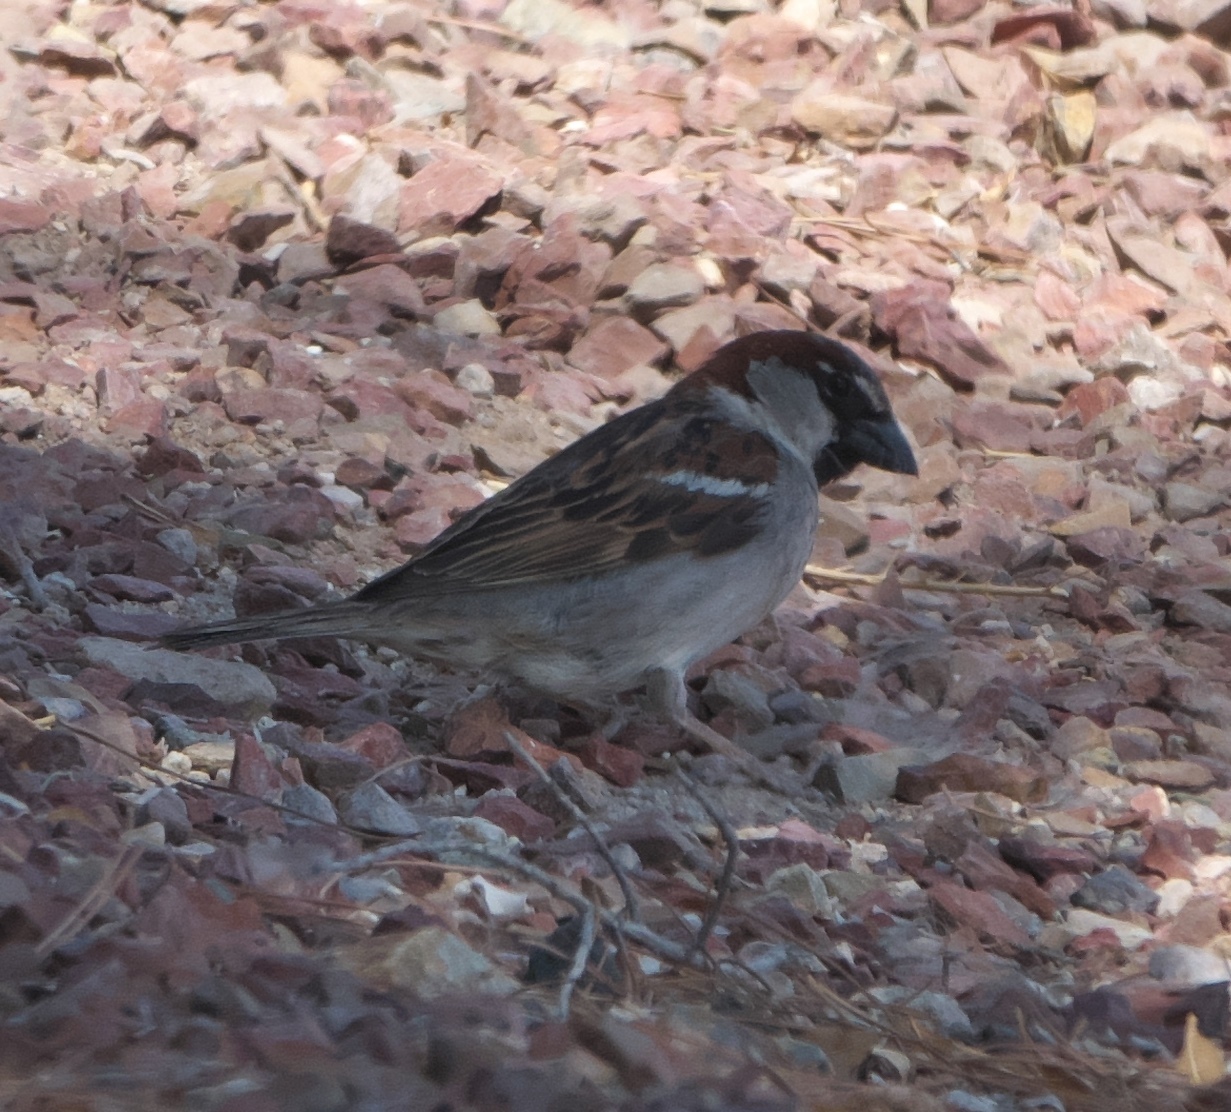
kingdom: Animalia
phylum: Chordata
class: Aves
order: Passeriformes
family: Passeridae
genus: Passer
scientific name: Passer domesticus
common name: House sparrow
